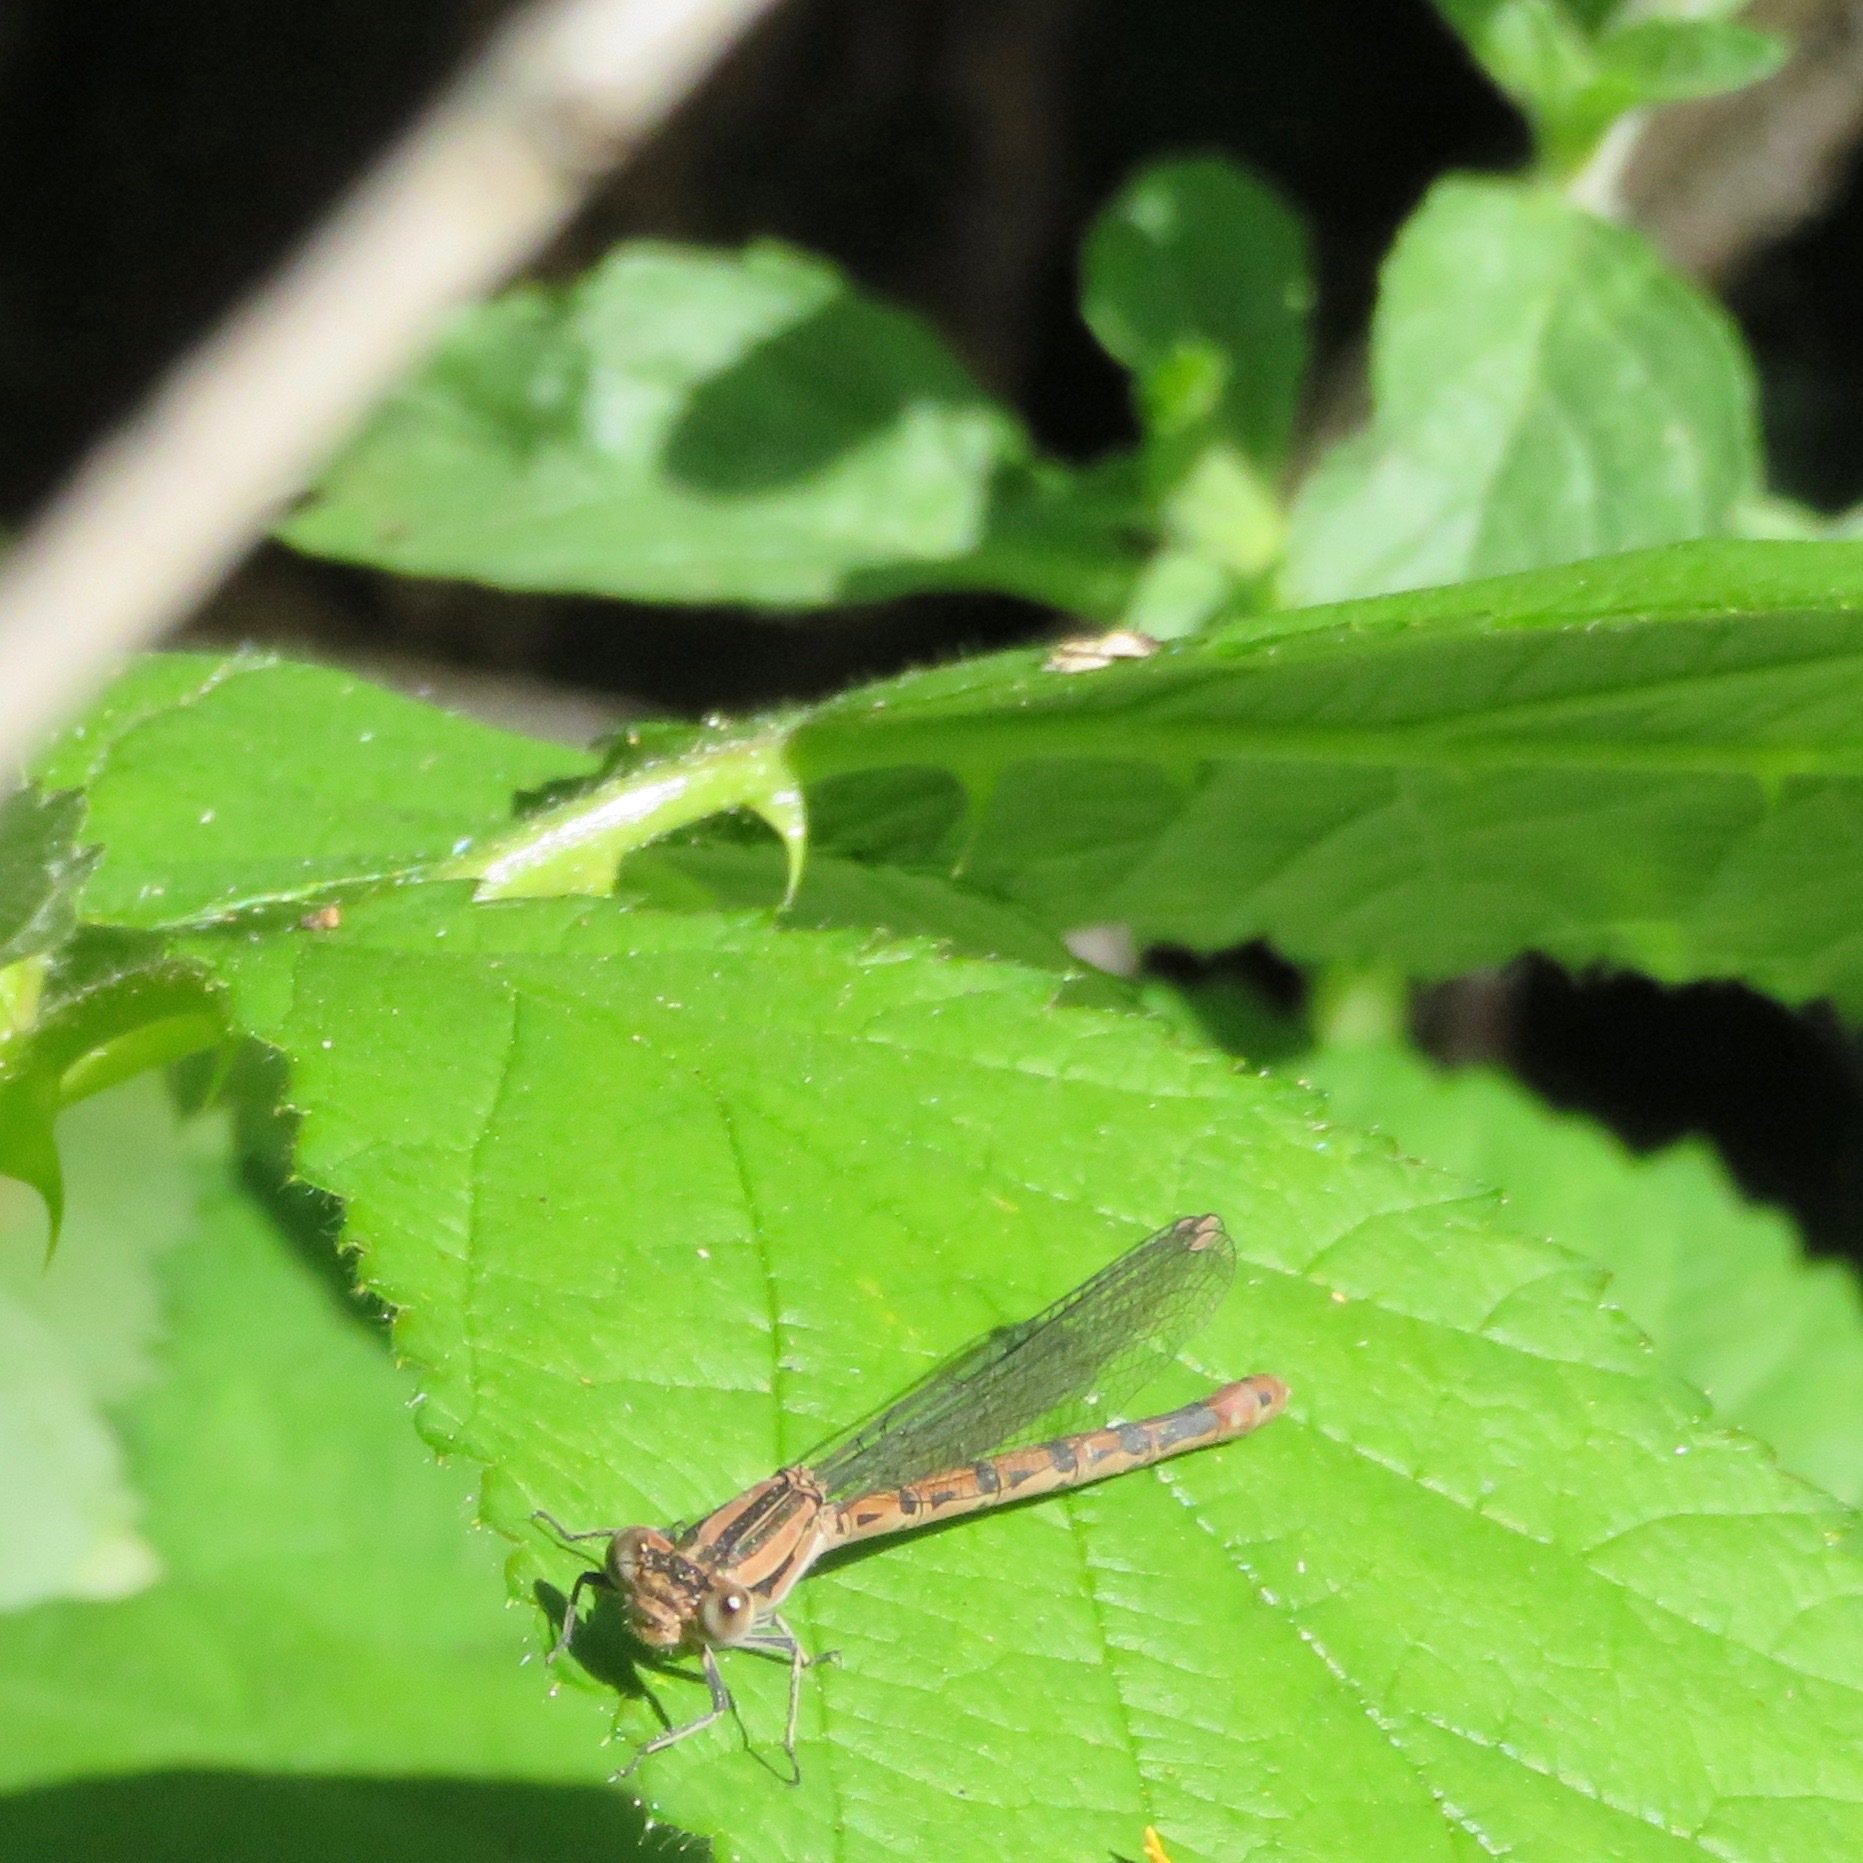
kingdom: Animalia
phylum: Arthropoda
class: Insecta
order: Odonata
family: Coenagrionidae
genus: Argia
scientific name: Argia vivida
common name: Vivid dancer
